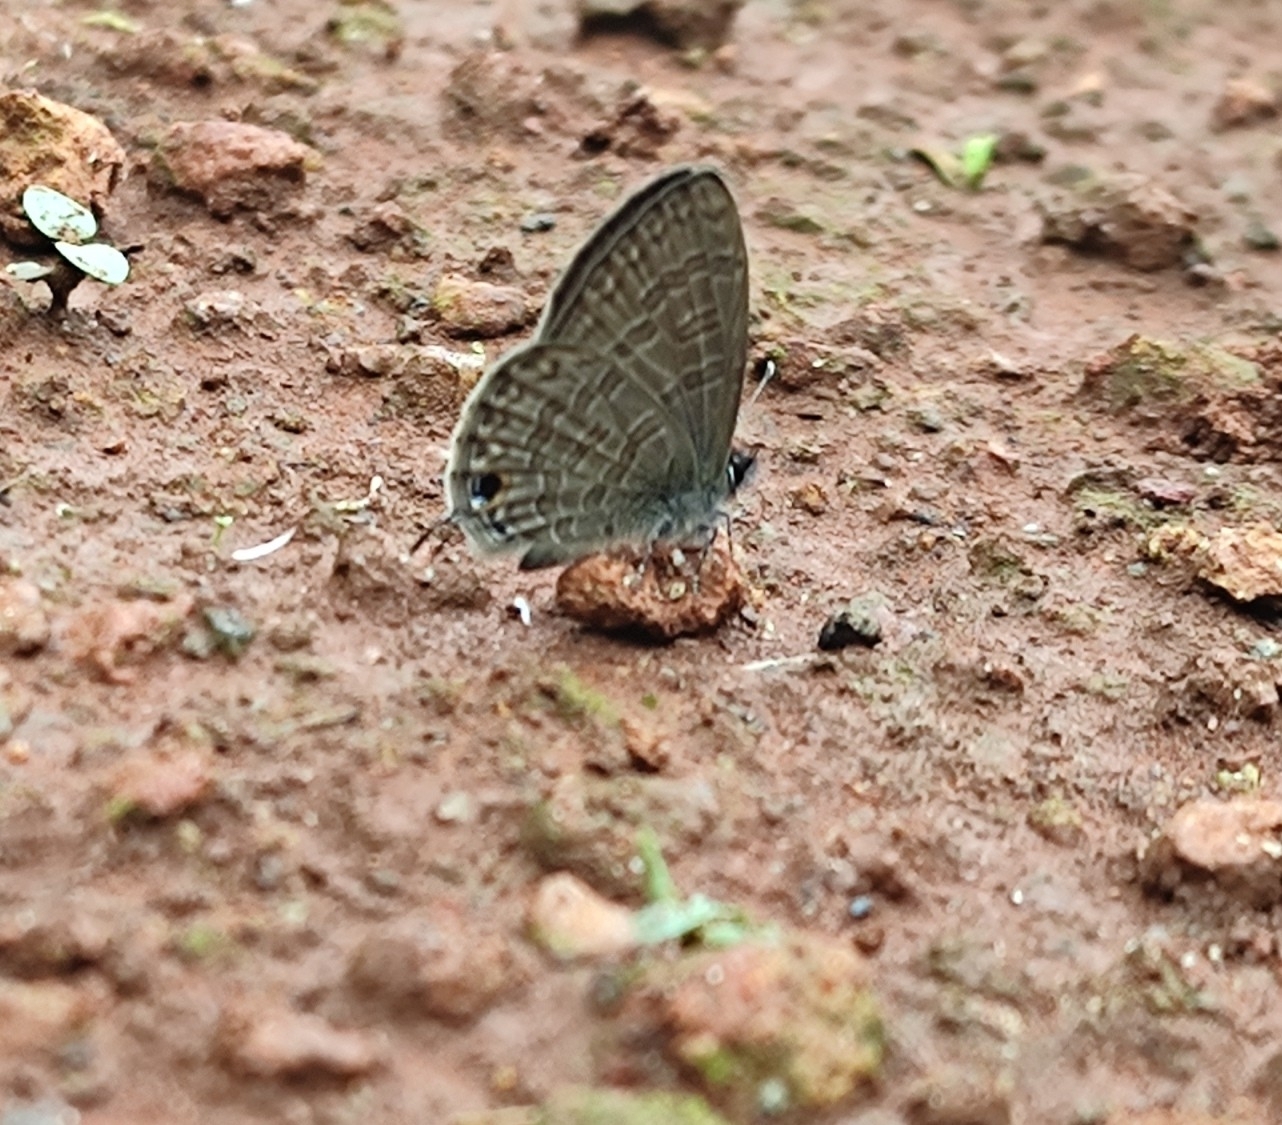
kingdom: Animalia
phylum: Arthropoda
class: Insecta
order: Lepidoptera
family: Lycaenidae
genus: Prosotas
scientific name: Prosotas nora
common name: Common line blue
